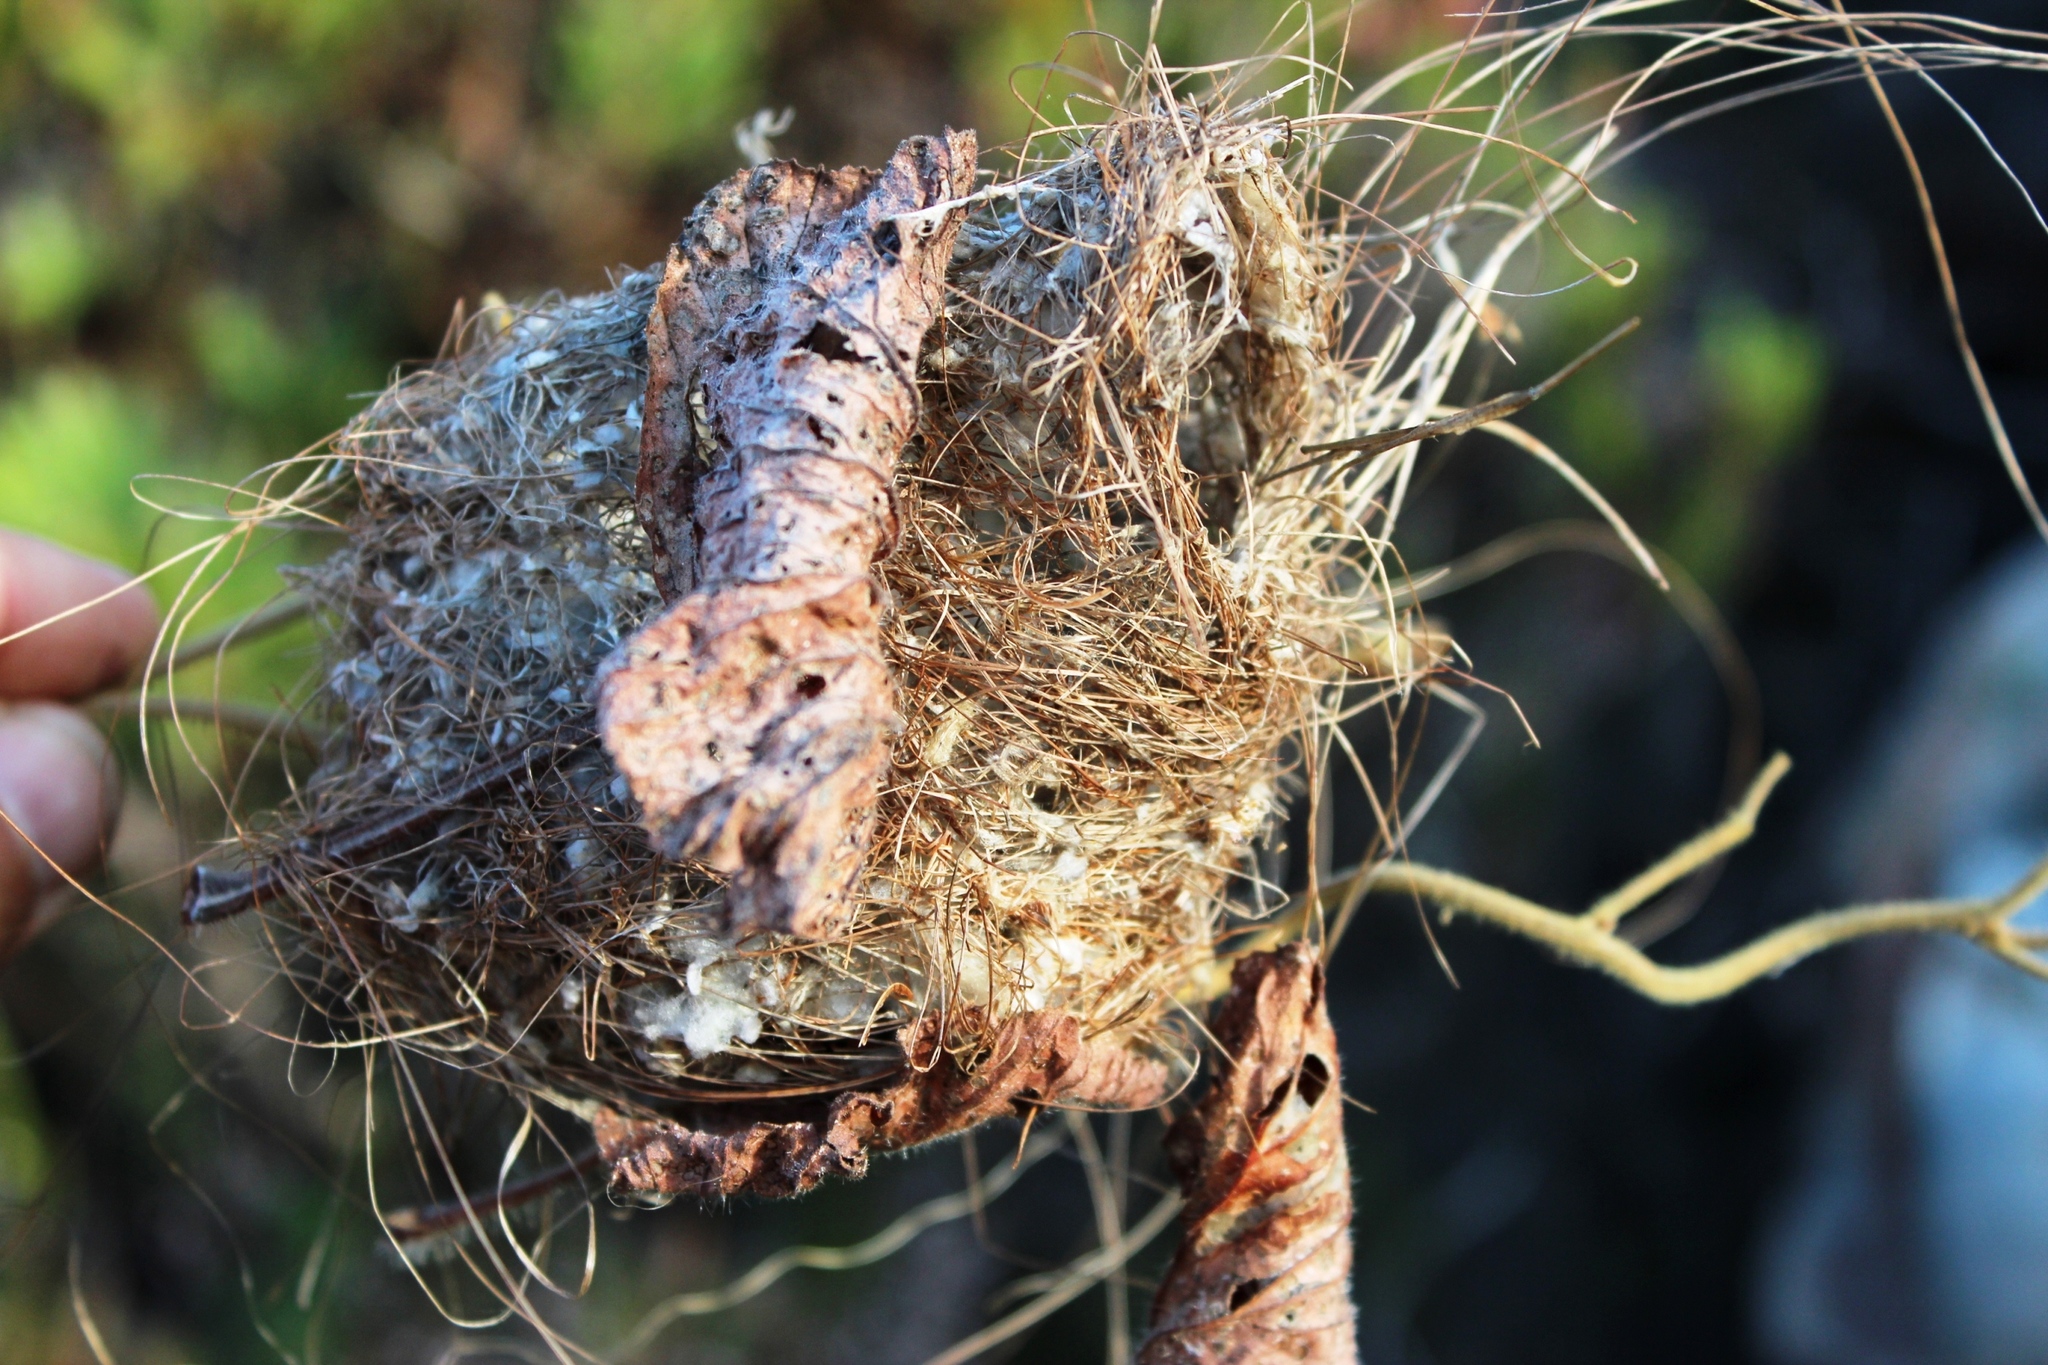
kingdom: Animalia
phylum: Chordata
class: Aves
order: Passeriformes
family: Nectariniidae
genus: Anthobaphes
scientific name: Anthobaphes violacea
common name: Orange-breasted sunbird
